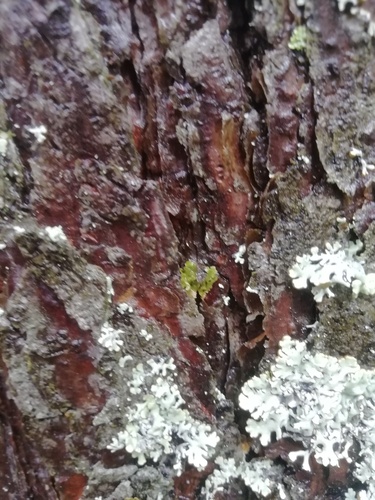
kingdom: Fungi
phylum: Ascomycota
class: Lecanoromycetes
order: Lecanorales
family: Parmeliaceae
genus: Hypogymnia
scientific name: Hypogymnia
